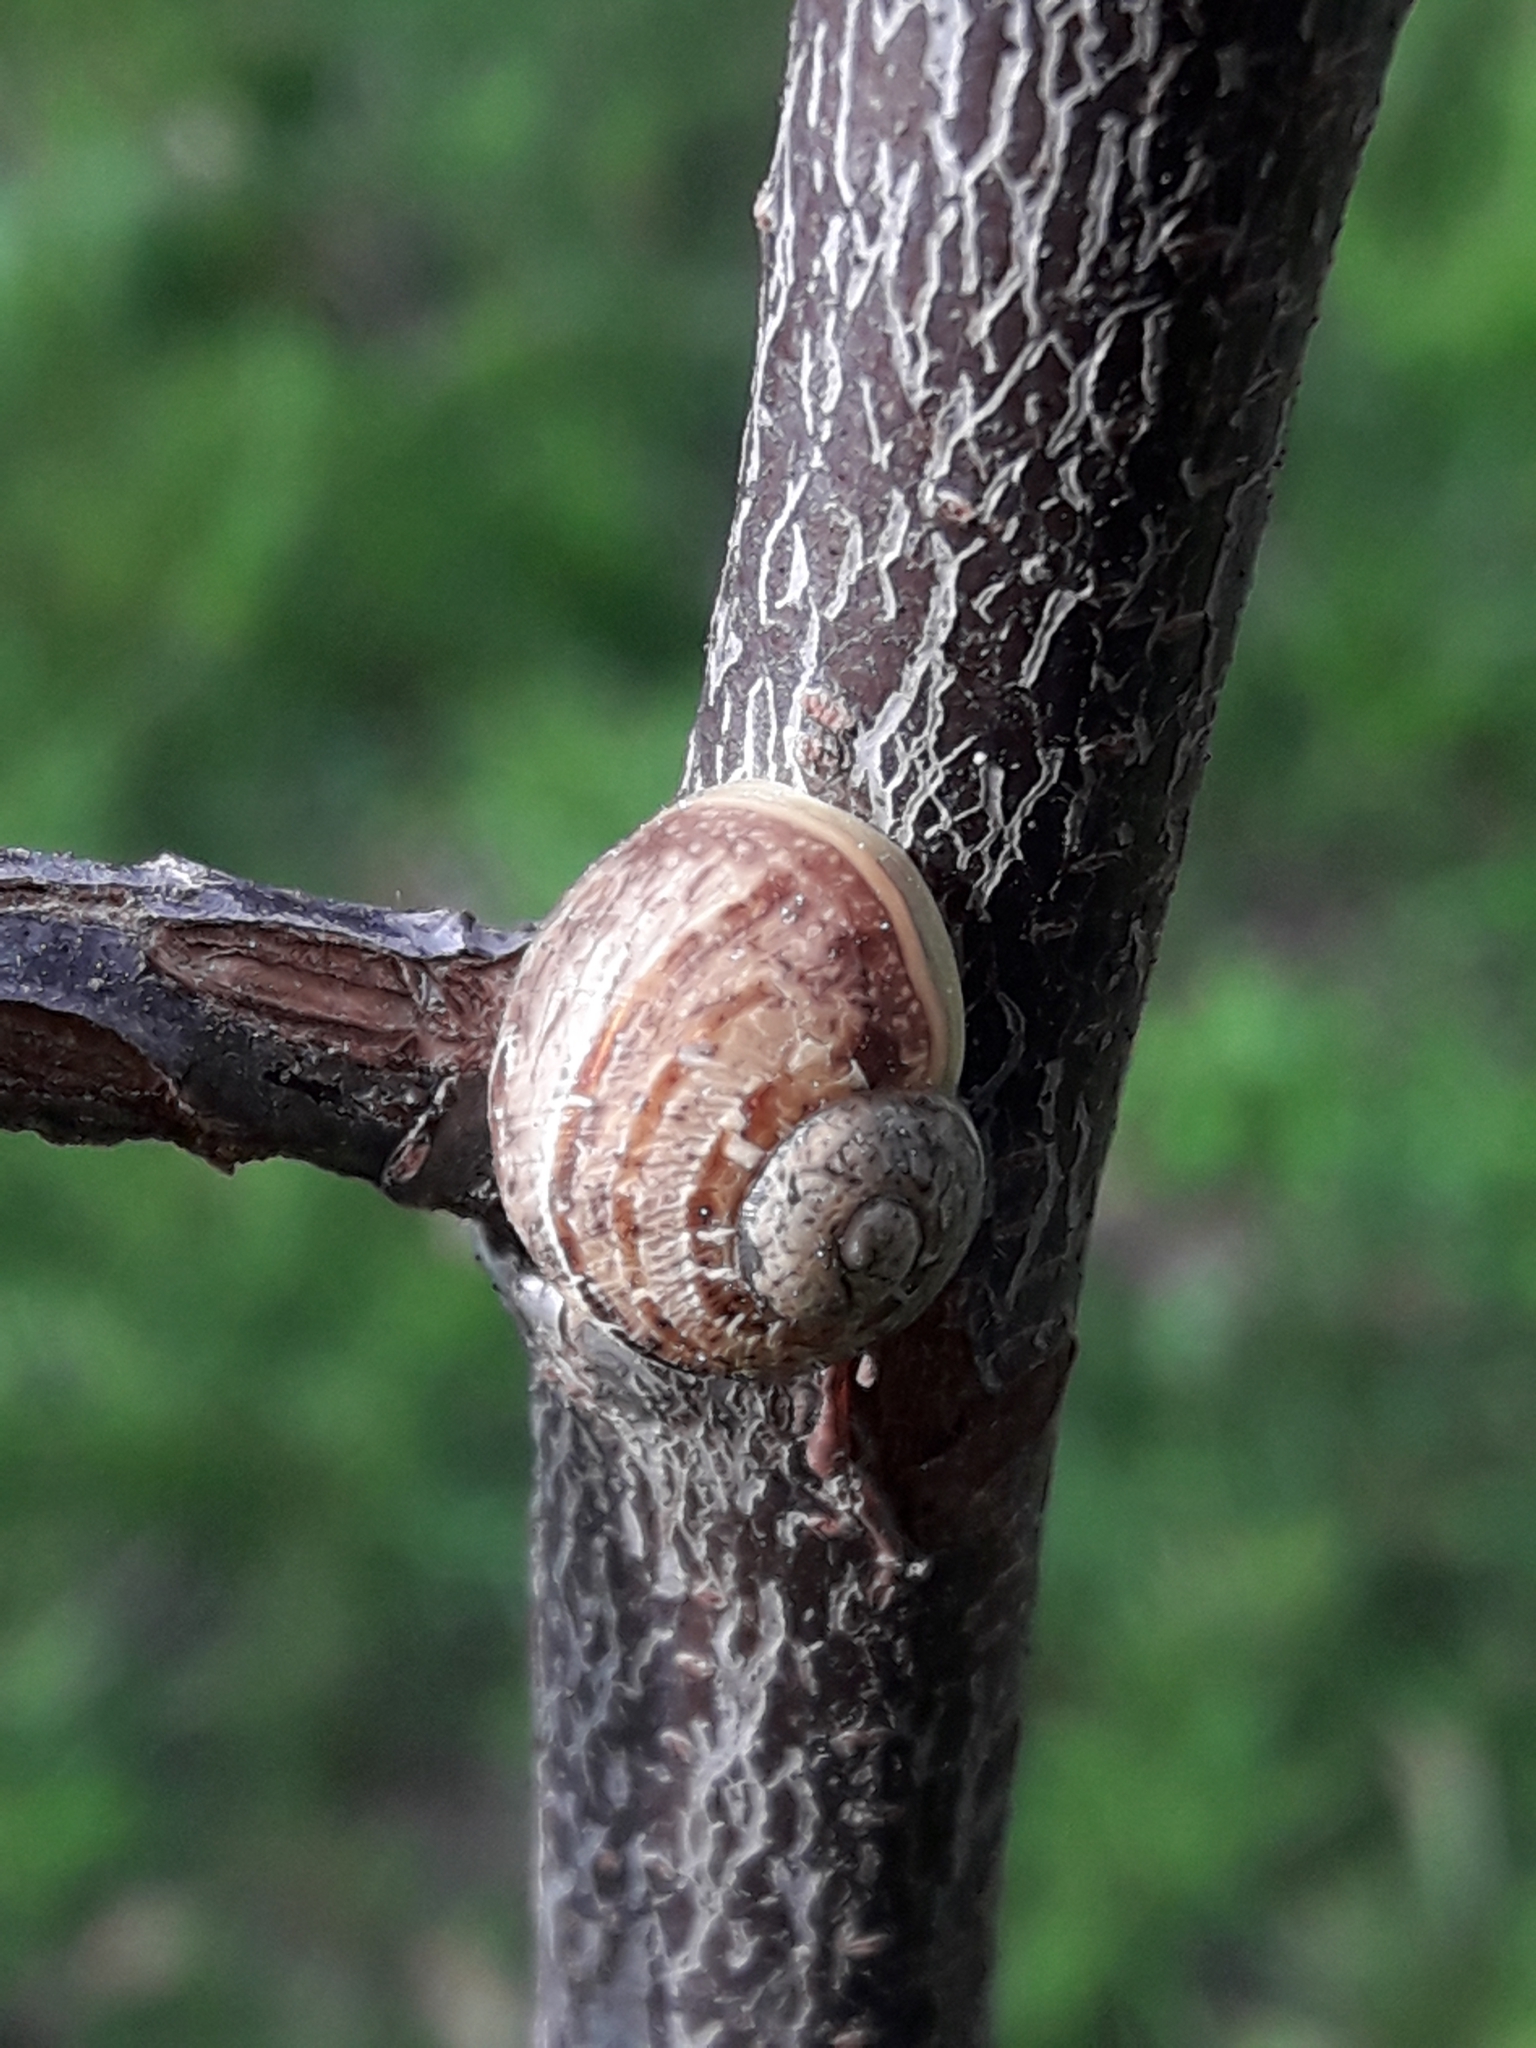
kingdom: Animalia
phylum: Mollusca
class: Gastropoda
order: Stylommatophora
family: Helicidae
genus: Cornu
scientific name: Cornu aspersum
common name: Brown garden snail
